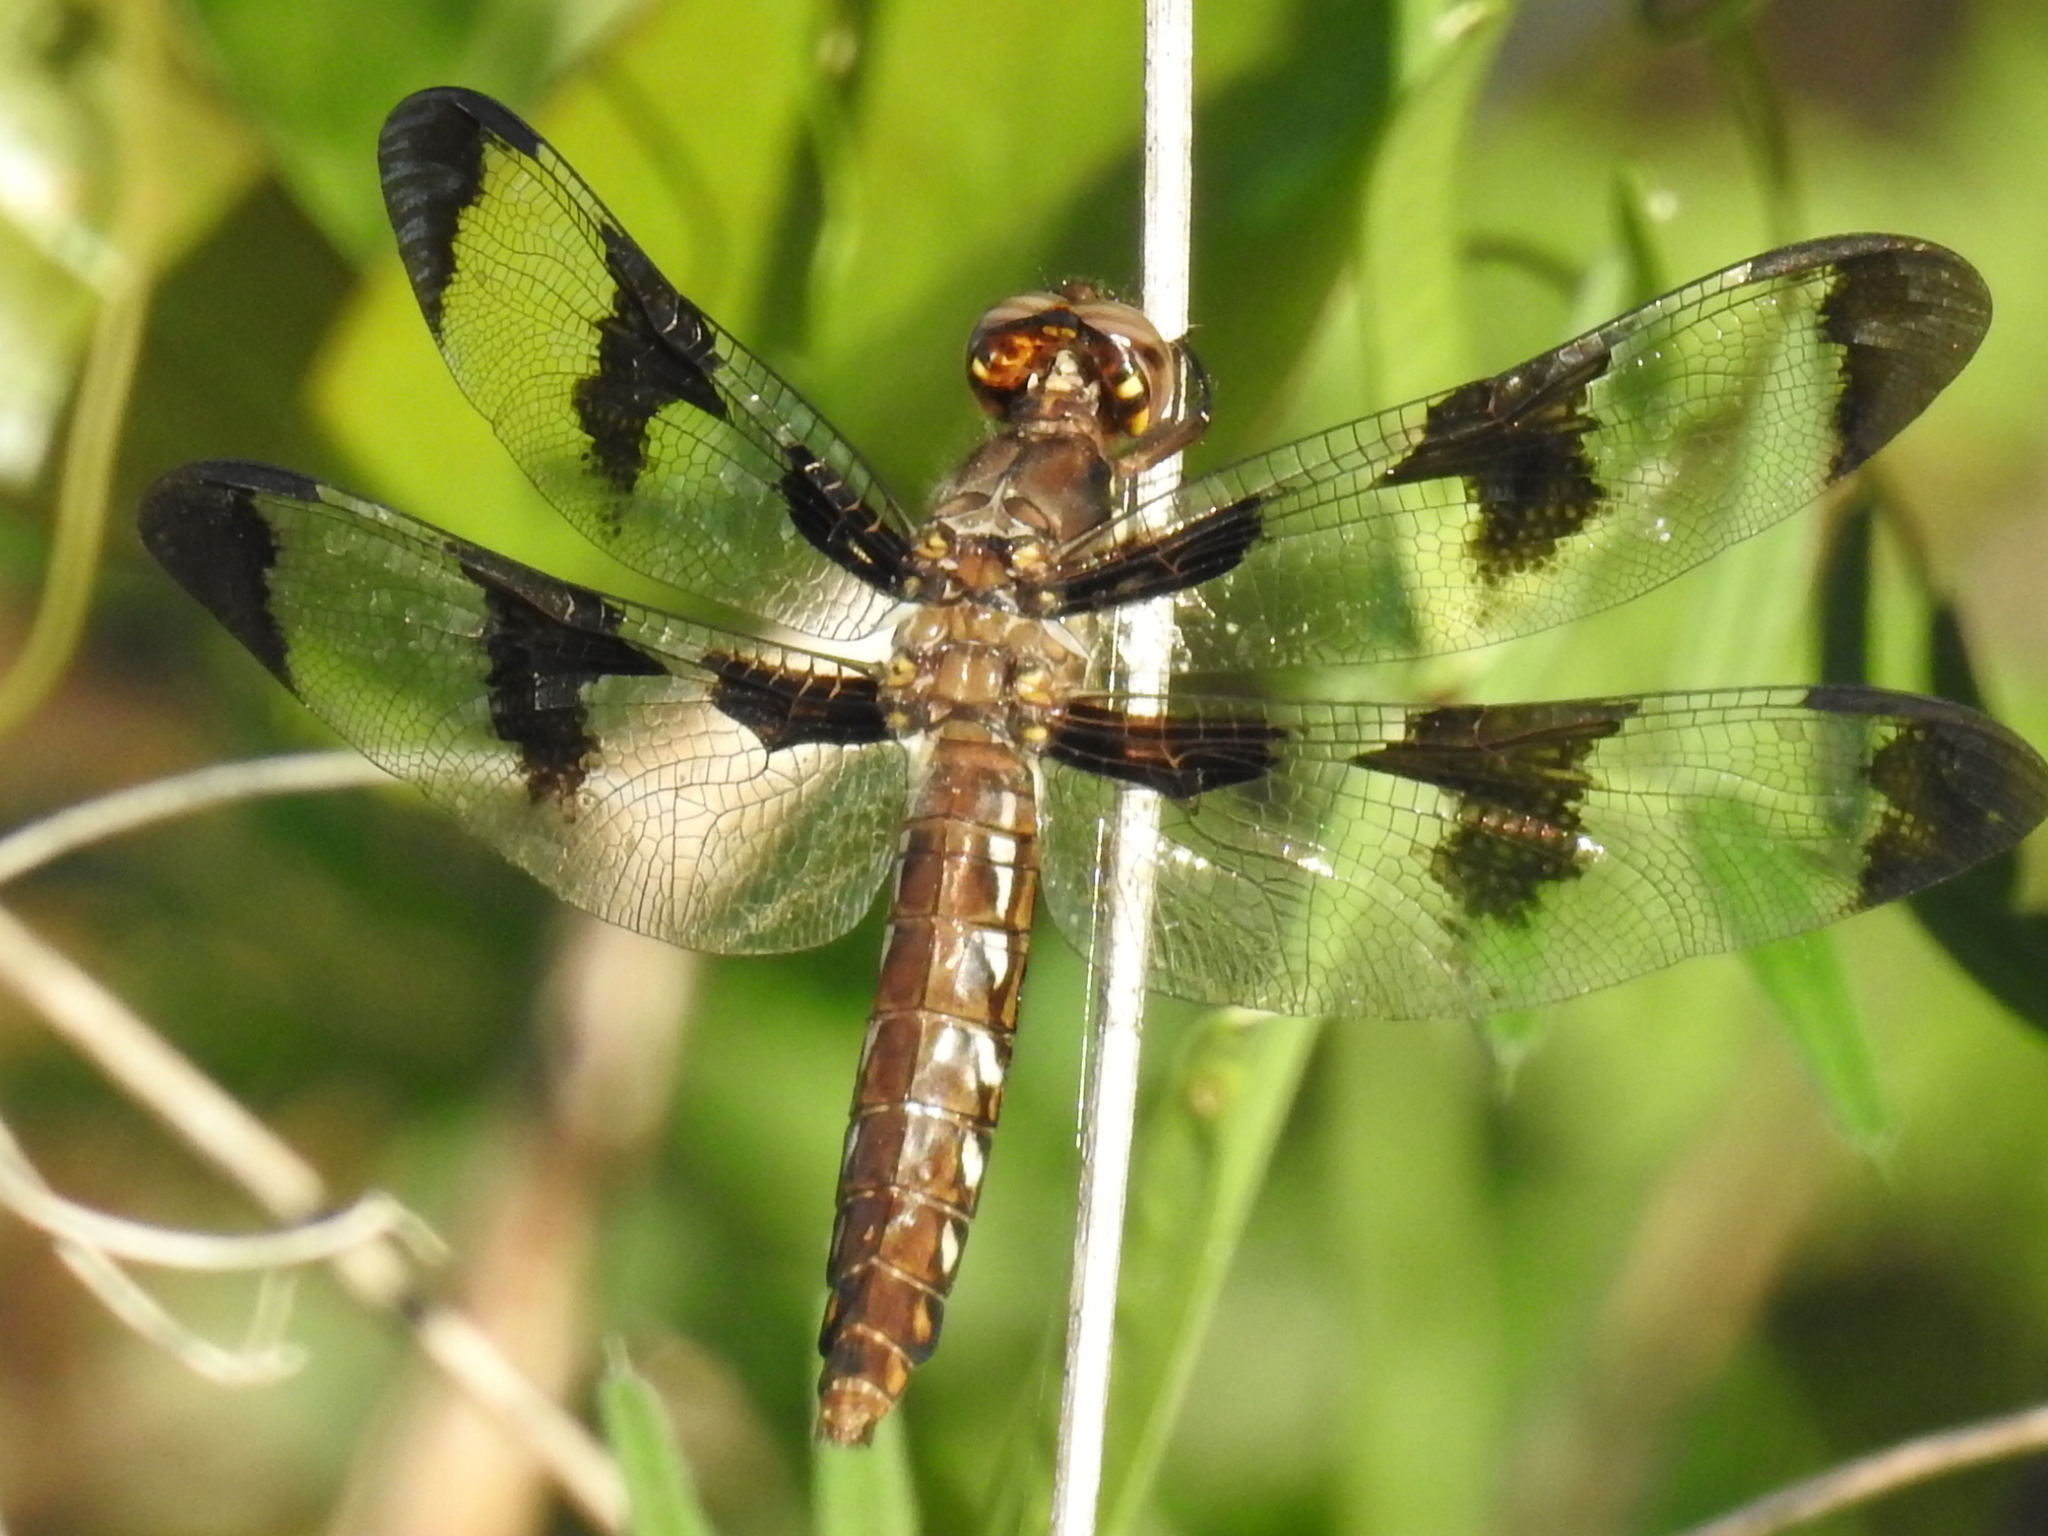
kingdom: Animalia
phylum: Arthropoda
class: Insecta
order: Odonata
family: Libellulidae
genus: Plathemis
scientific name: Plathemis lydia
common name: Common whitetail
